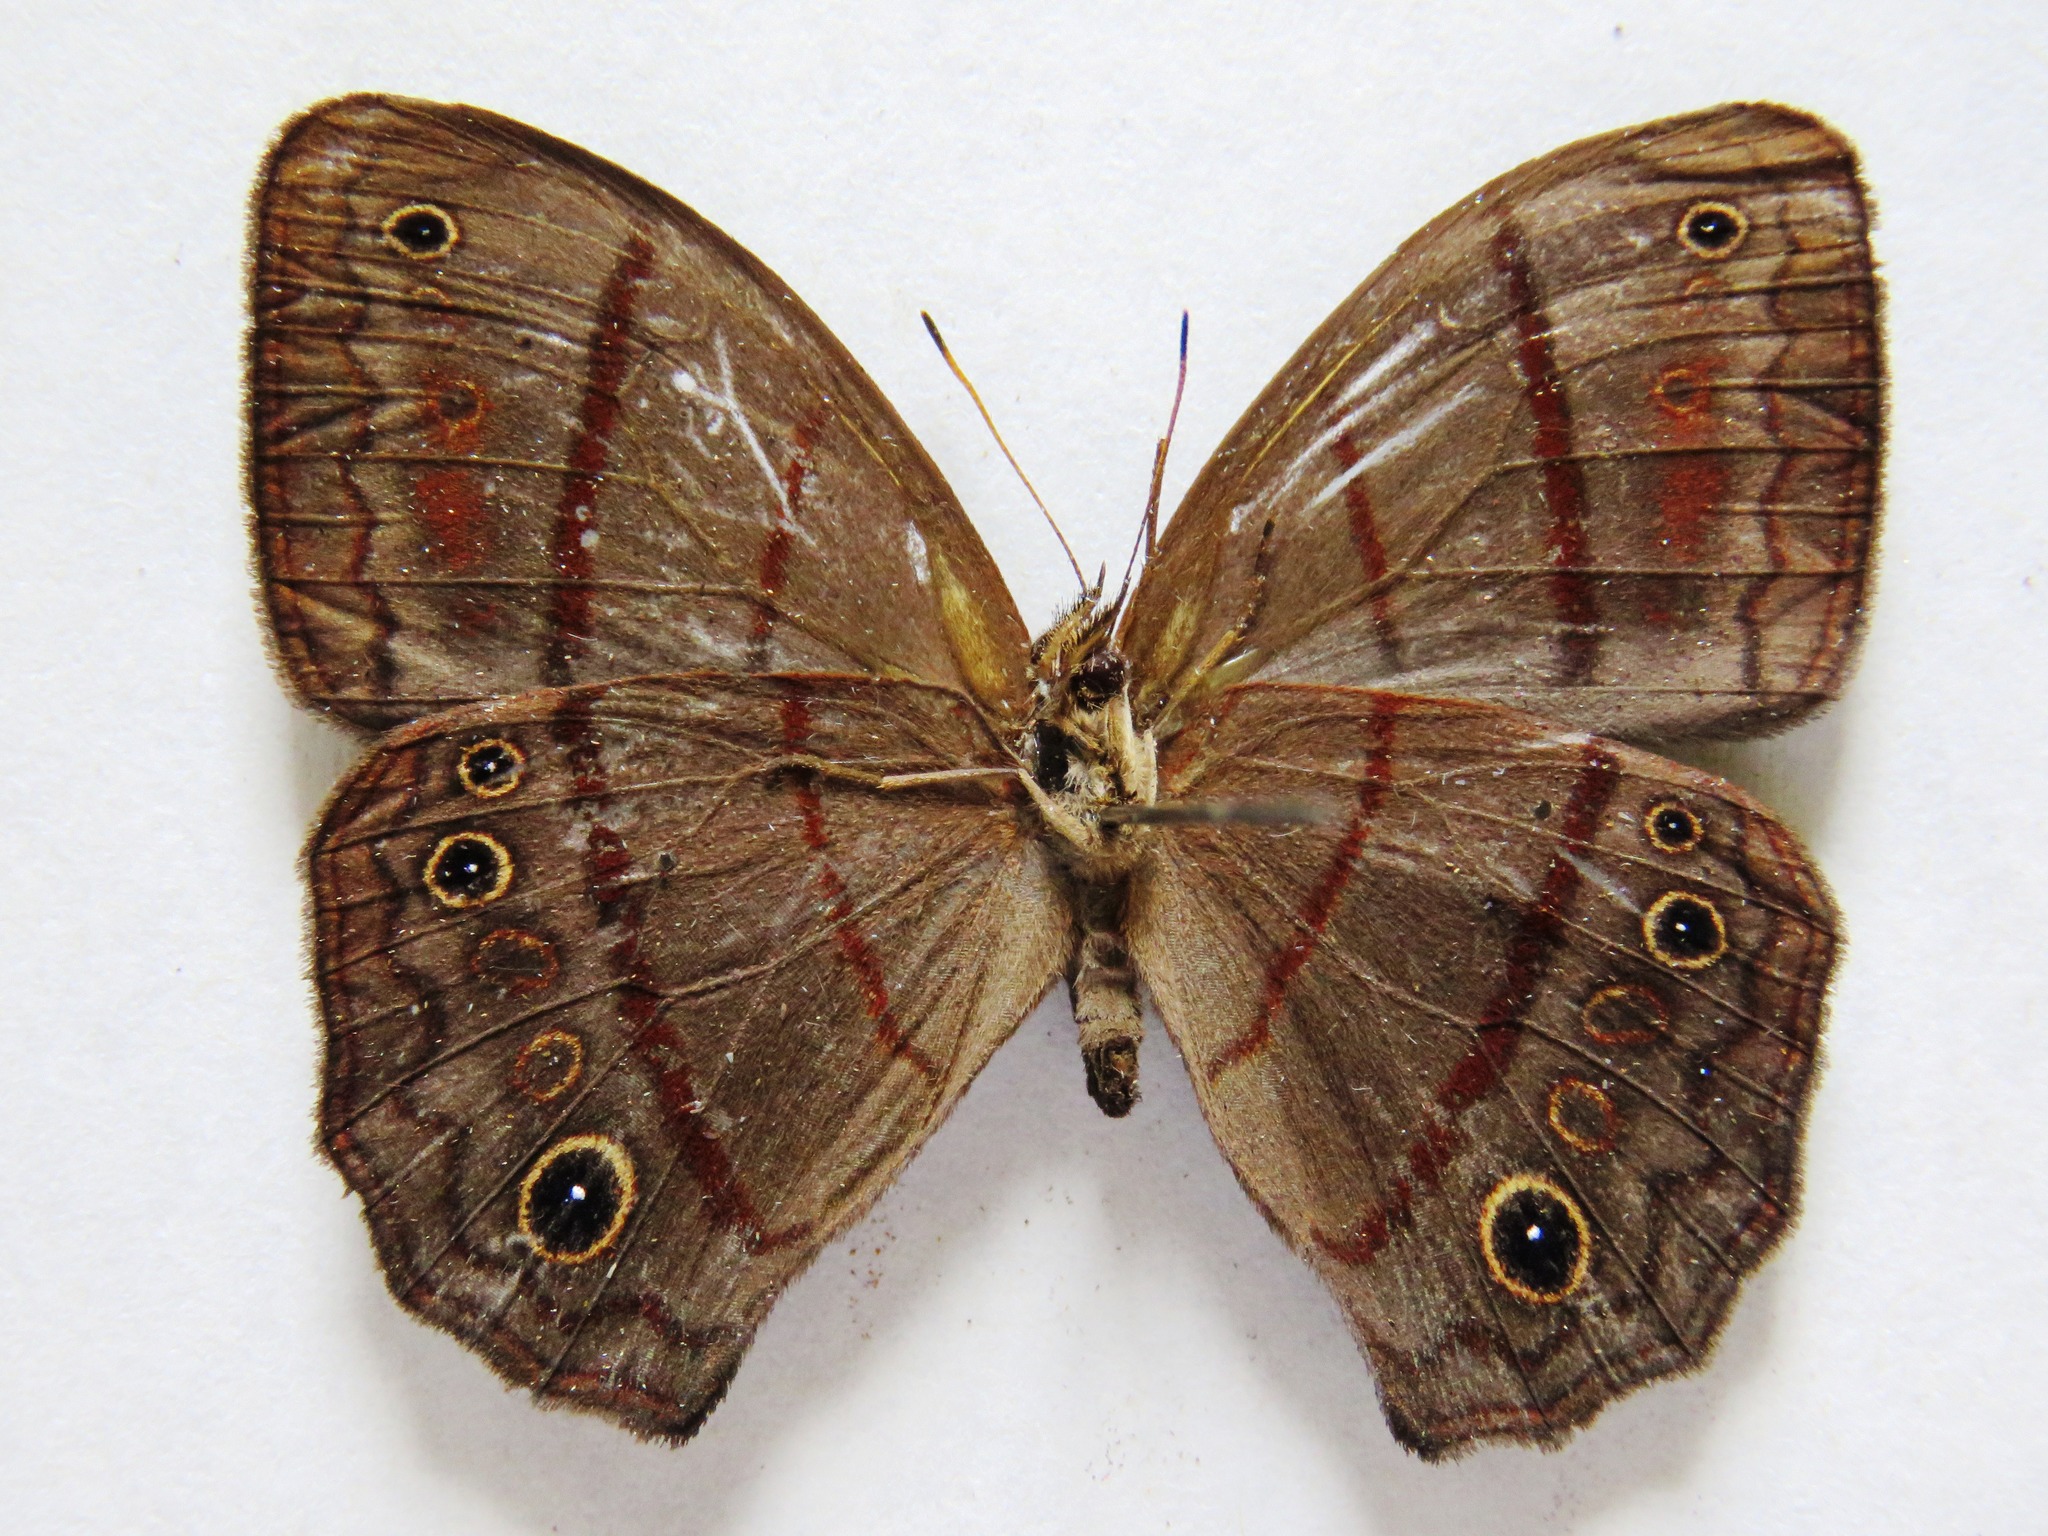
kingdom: Animalia
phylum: Arthropoda
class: Insecta
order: Lepidoptera
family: Nymphalidae
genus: Satyrotaygetis
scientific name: Satyrotaygetis satyrina
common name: Wide-bordered satyr
